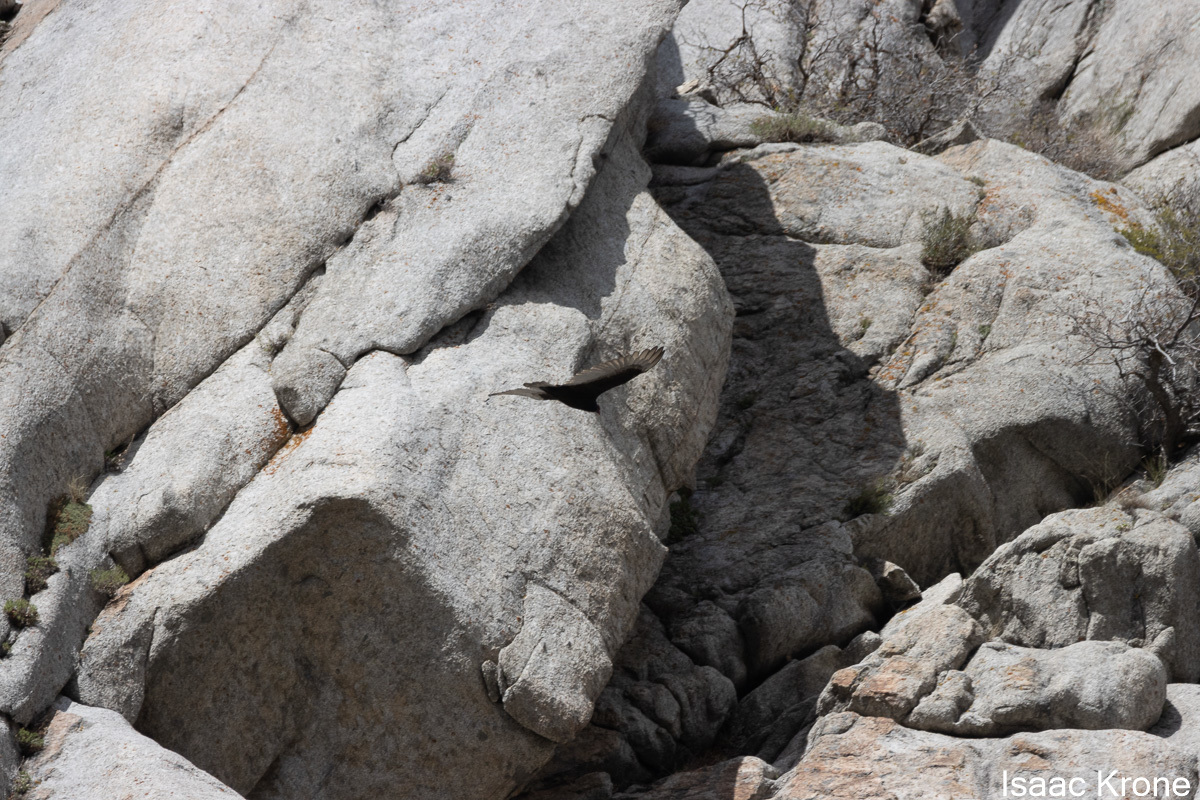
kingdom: Animalia
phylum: Chordata
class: Aves
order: Accipitriformes
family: Cathartidae
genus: Cathartes
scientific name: Cathartes aura
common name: Turkey vulture
